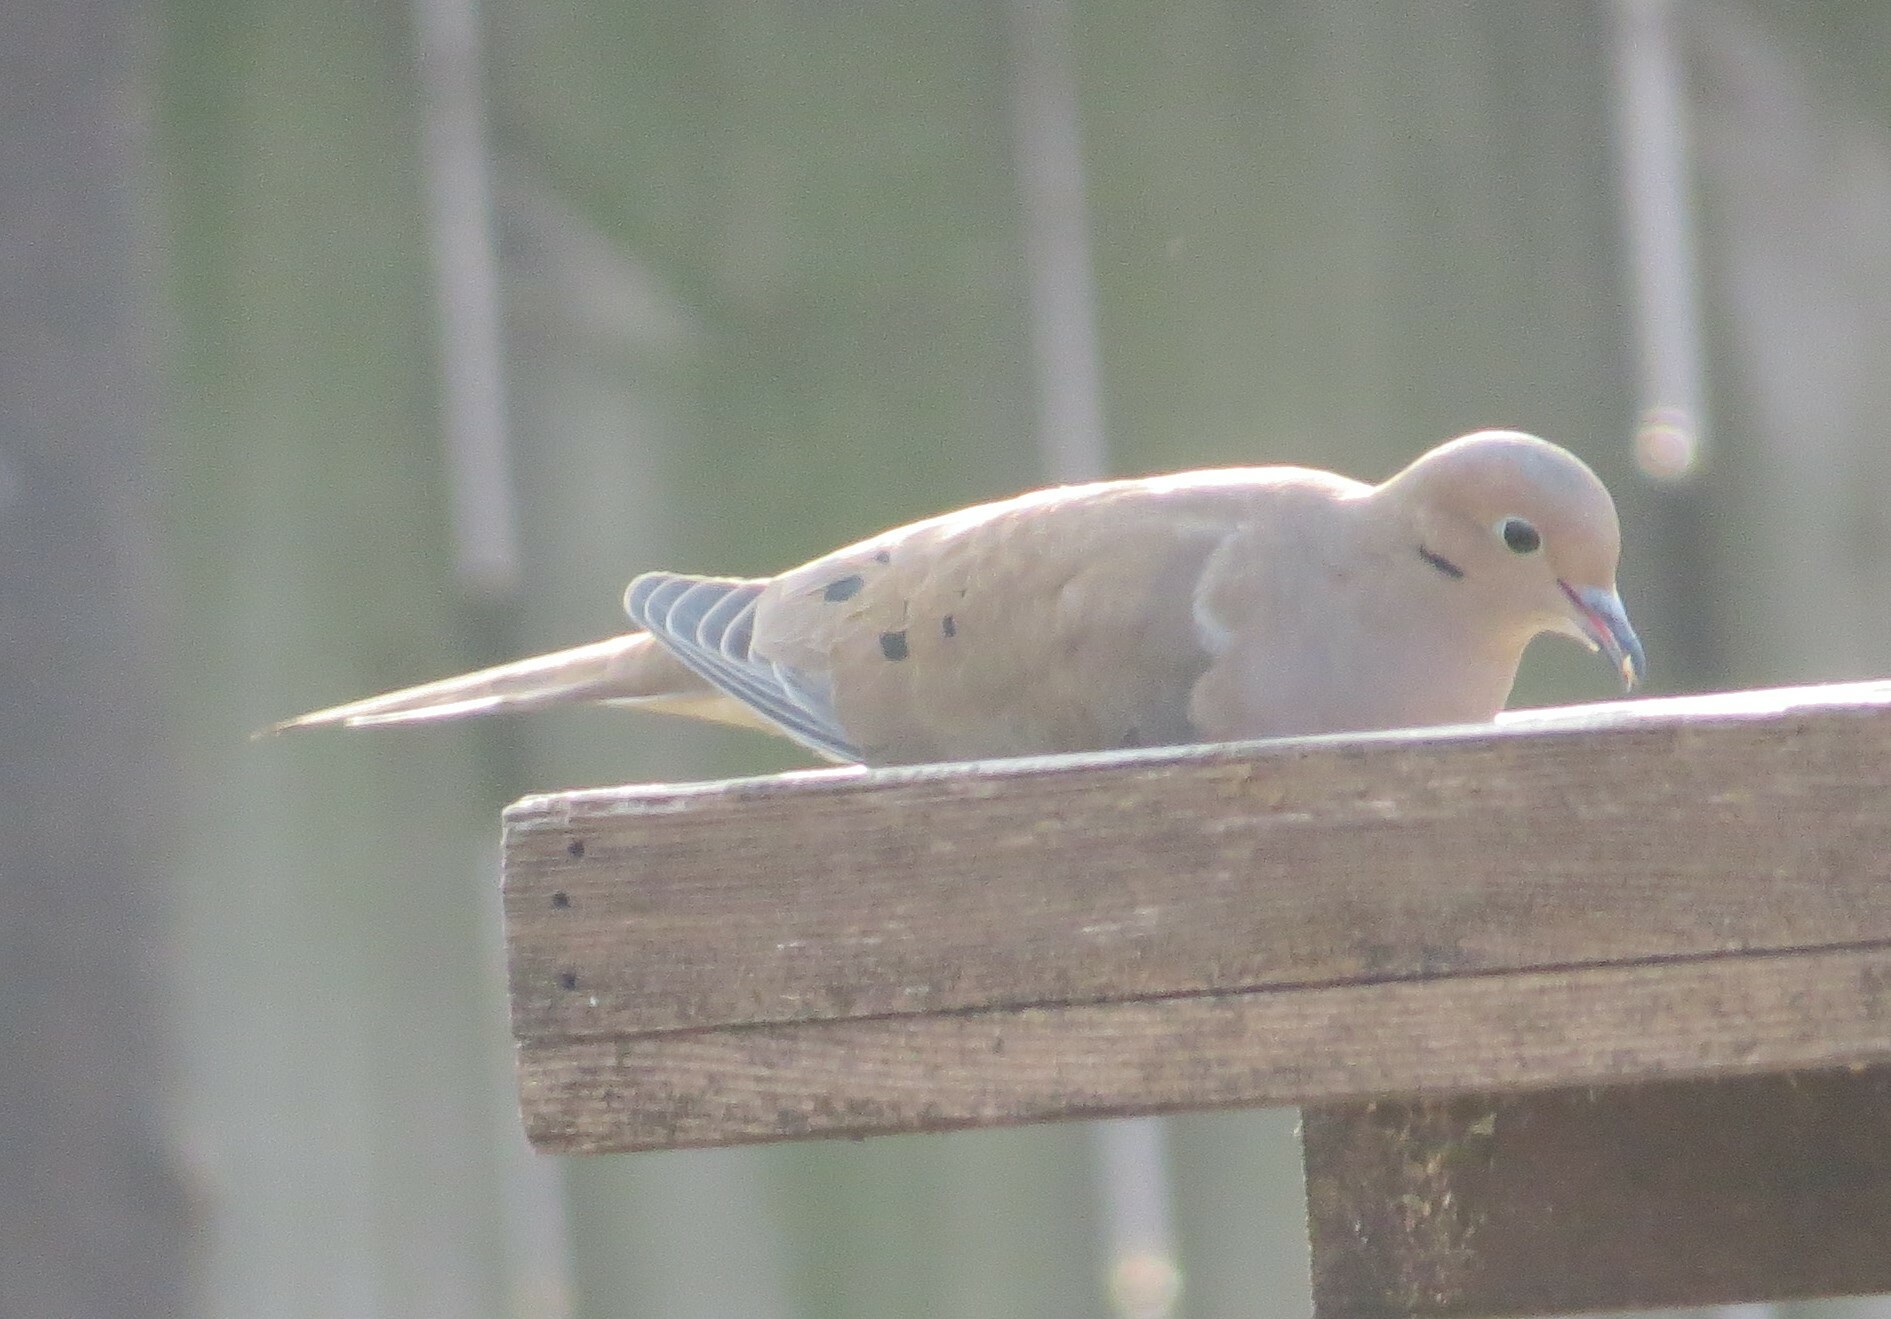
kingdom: Animalia
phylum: Chordata
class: Aves
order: Columbiformes
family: Columbidae
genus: Zenaida
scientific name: Zenaida macroura
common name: Mourning dove
